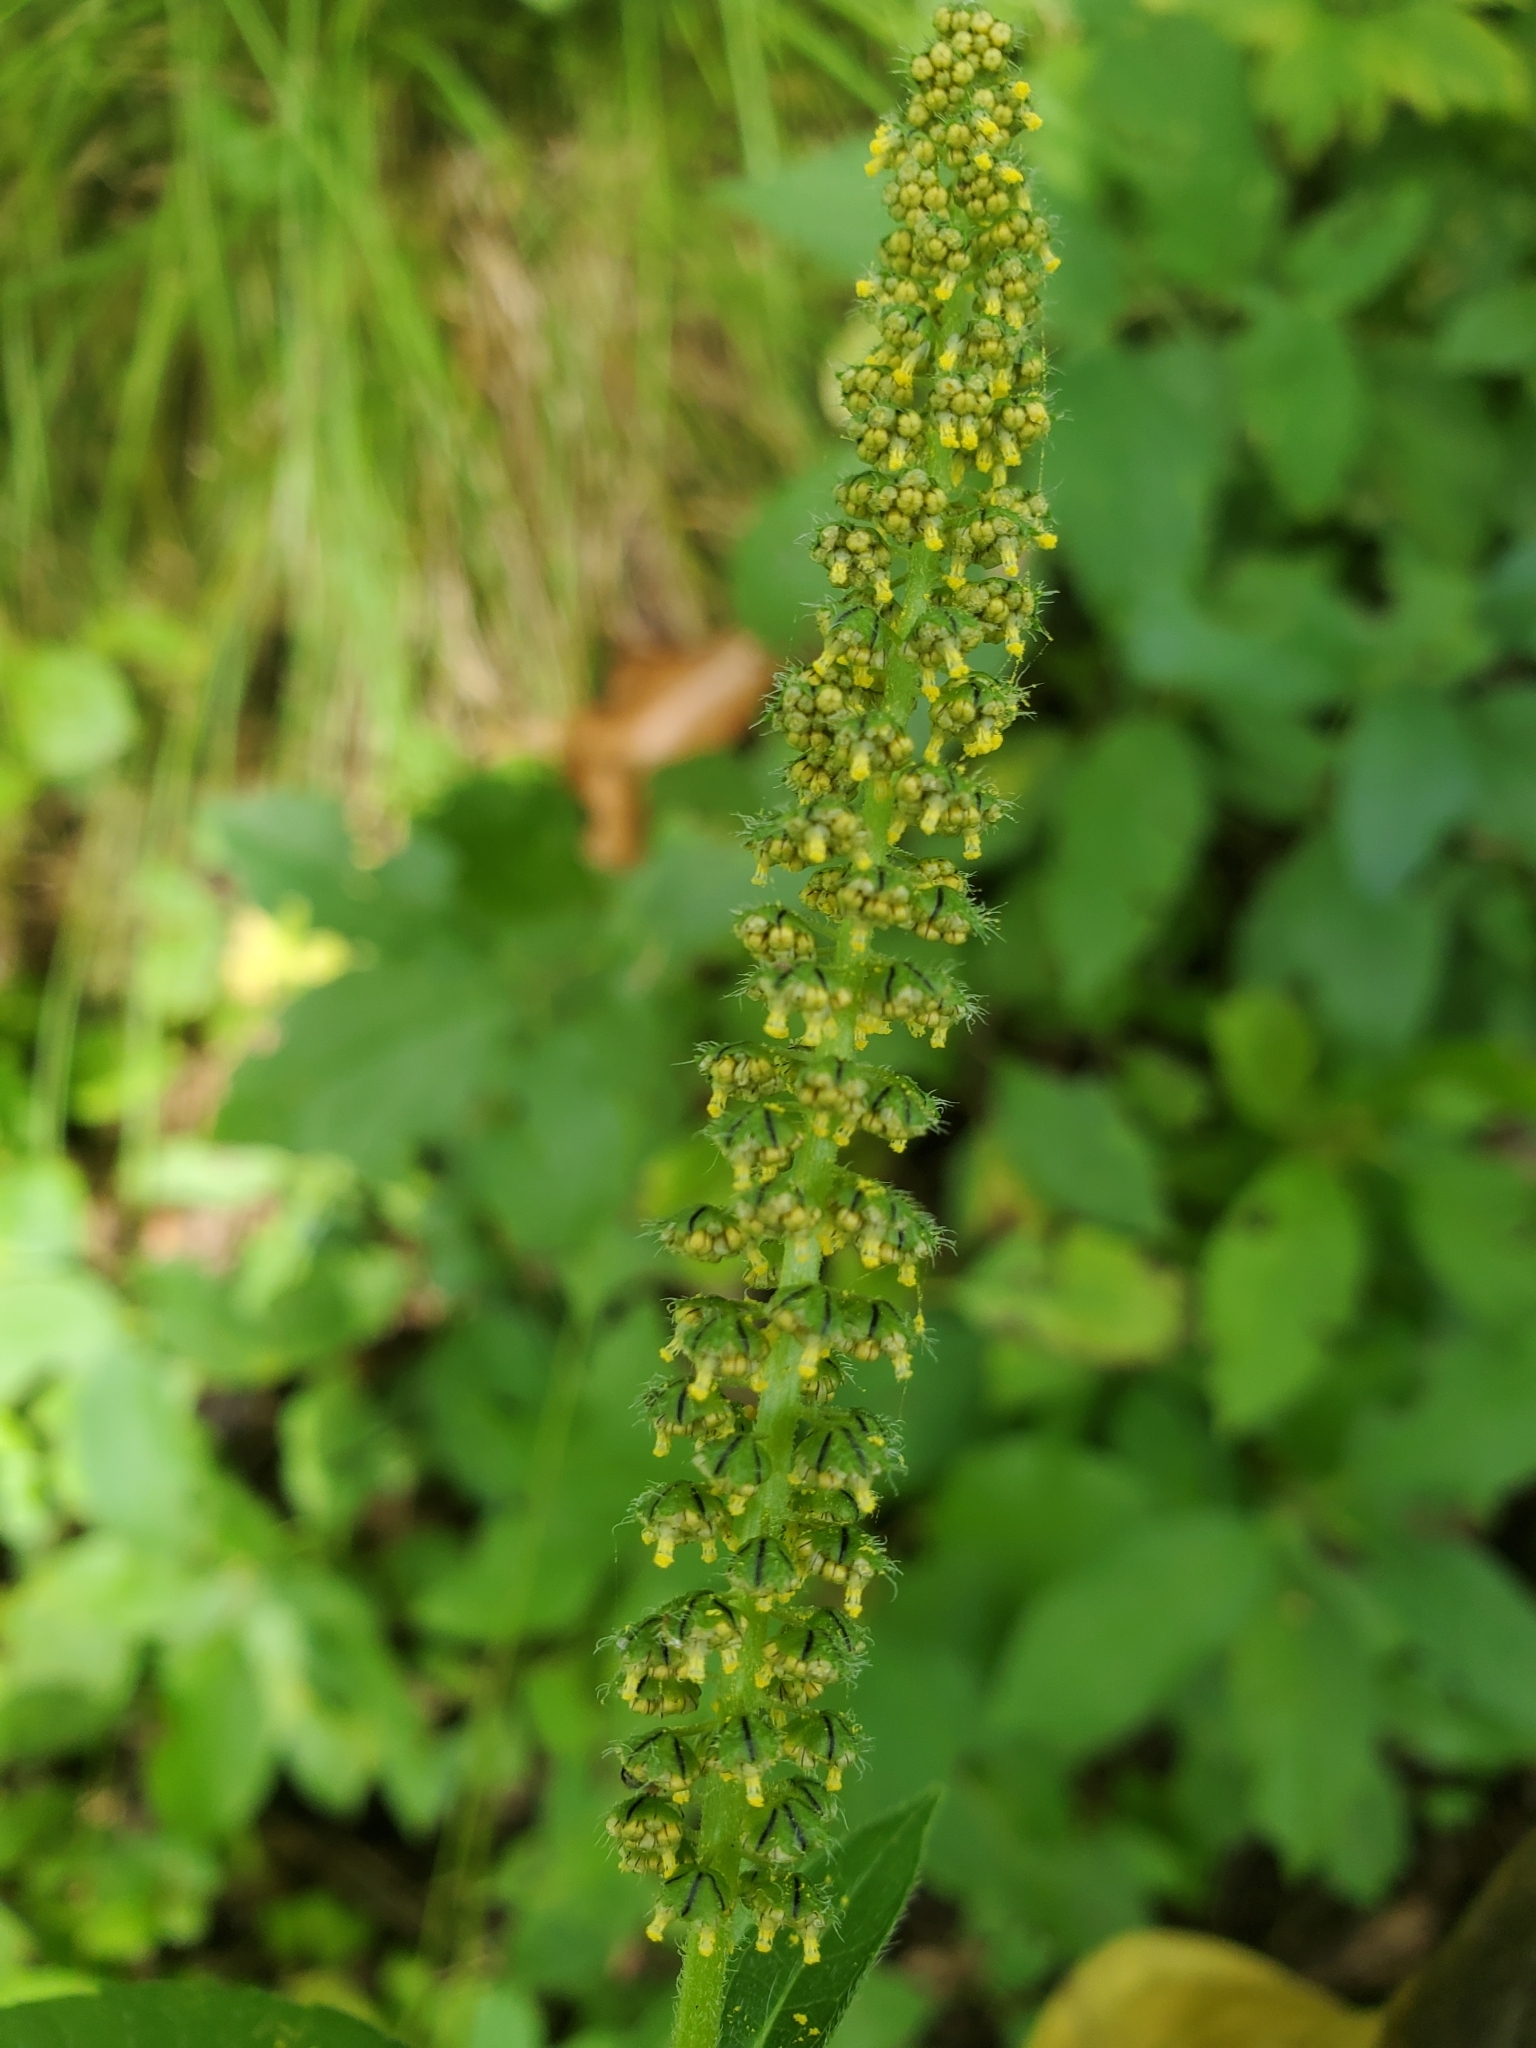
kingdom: Plantae
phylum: Tracheophyta
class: Magnoliopsida
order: Asterales
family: Asteraceae
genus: Ambrosia
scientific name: Ambrosia trifida
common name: Giant ragweed
